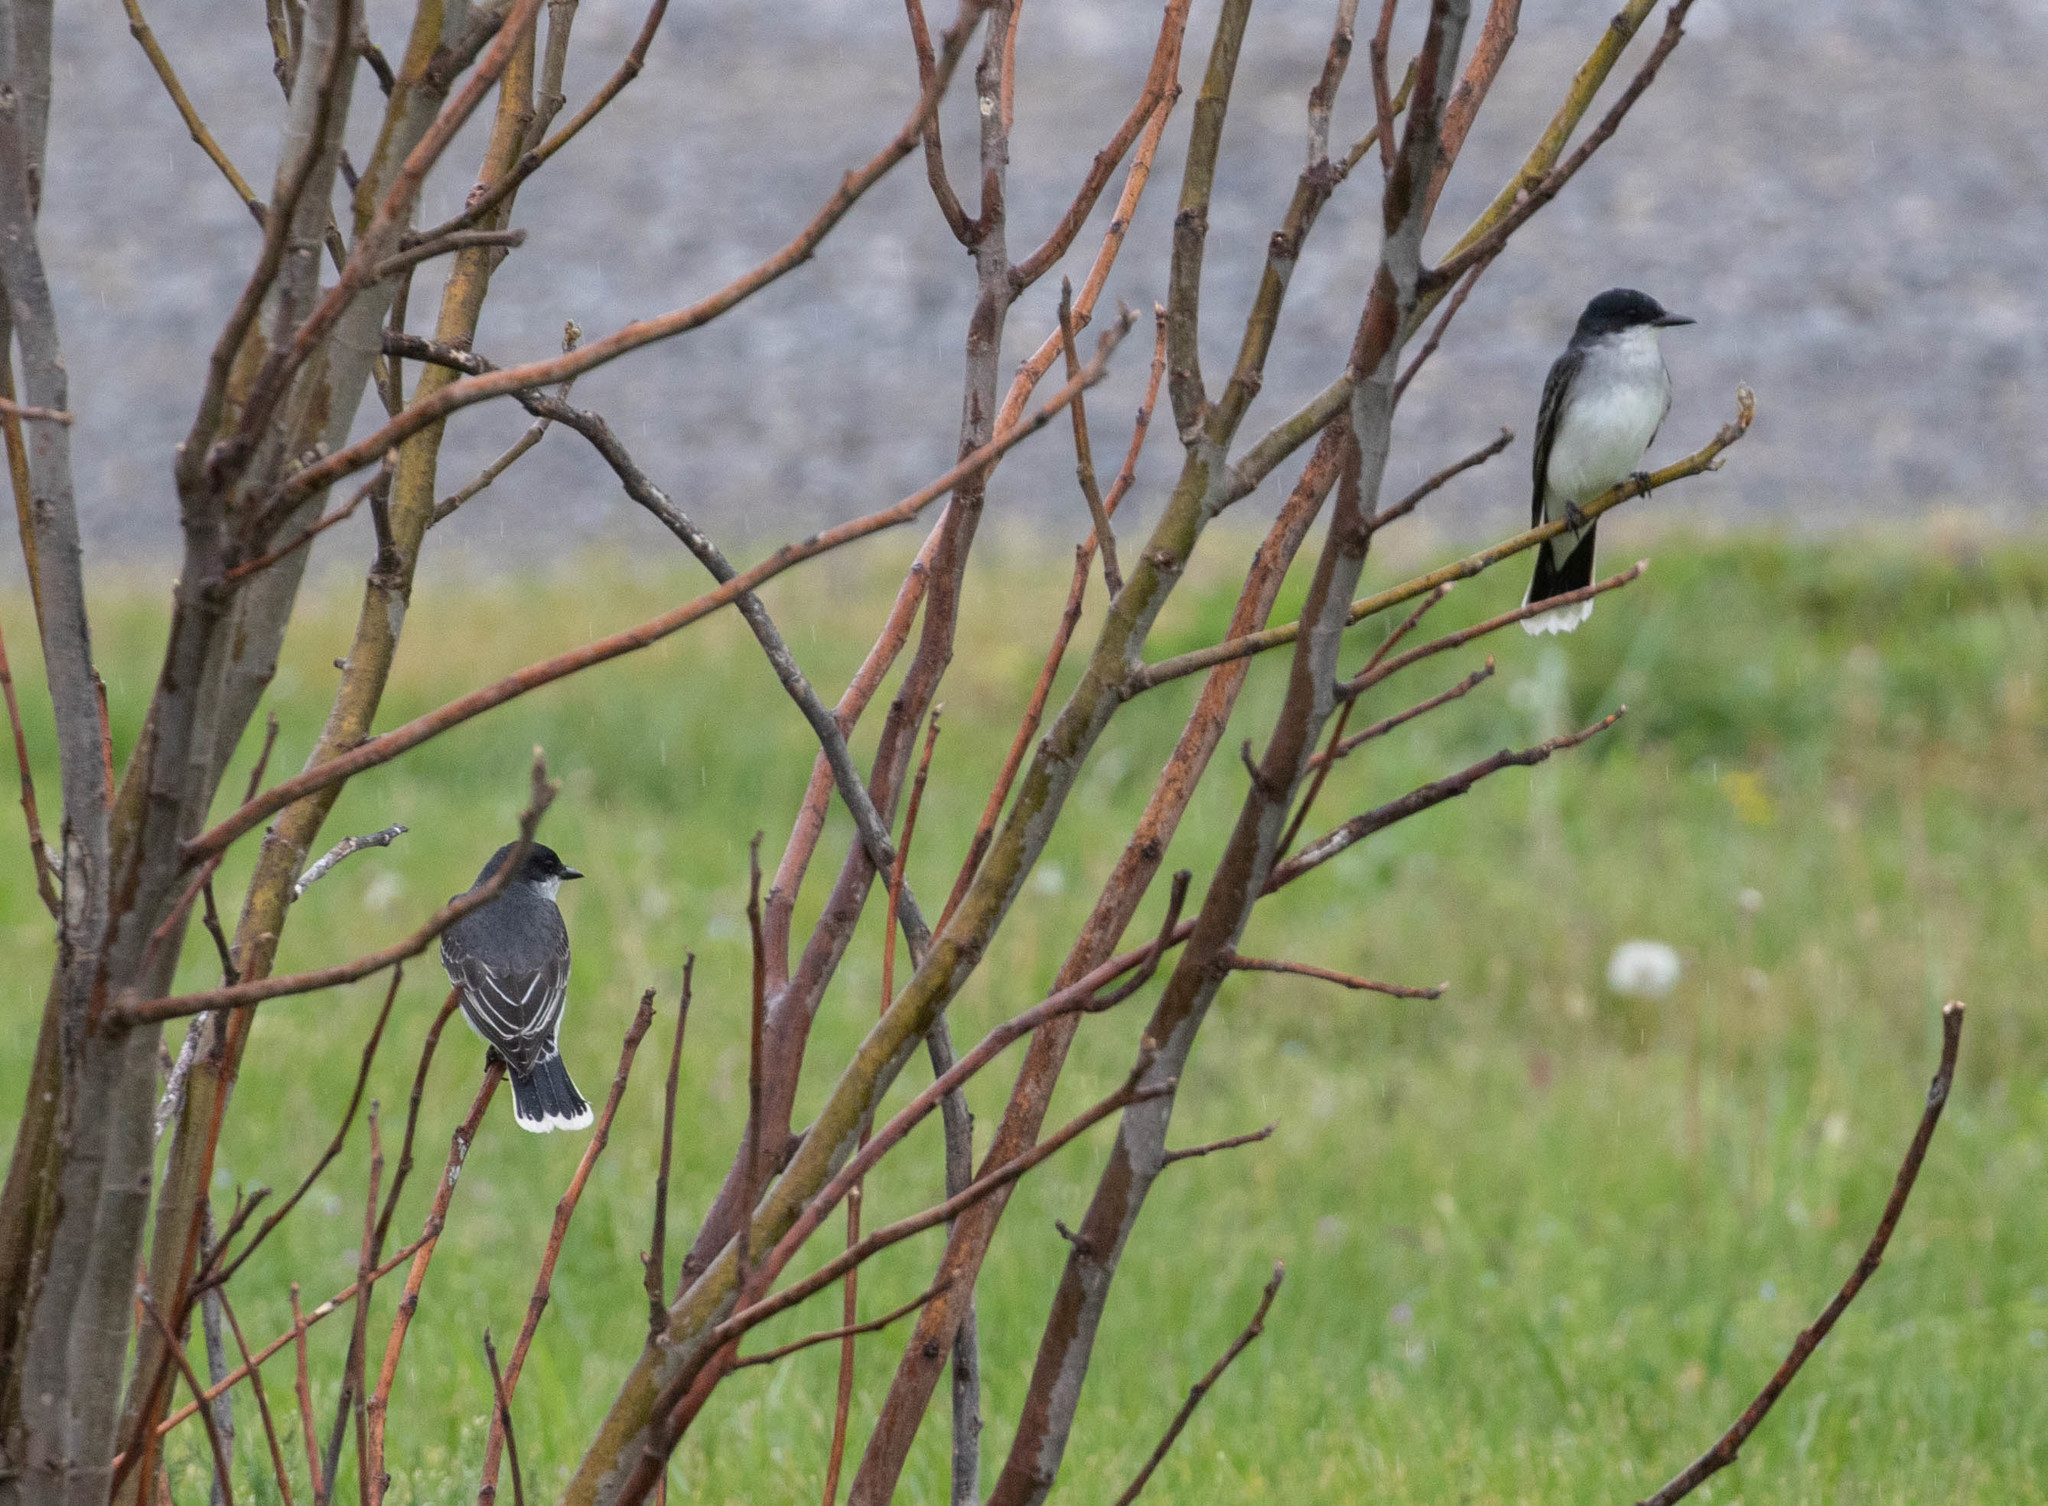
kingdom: Animalia
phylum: Chordata
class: Aves
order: Passeriformes
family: Tyrannidae
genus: Tyrannus
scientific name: Tyrannus tyrannus
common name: Eastern kingbird
